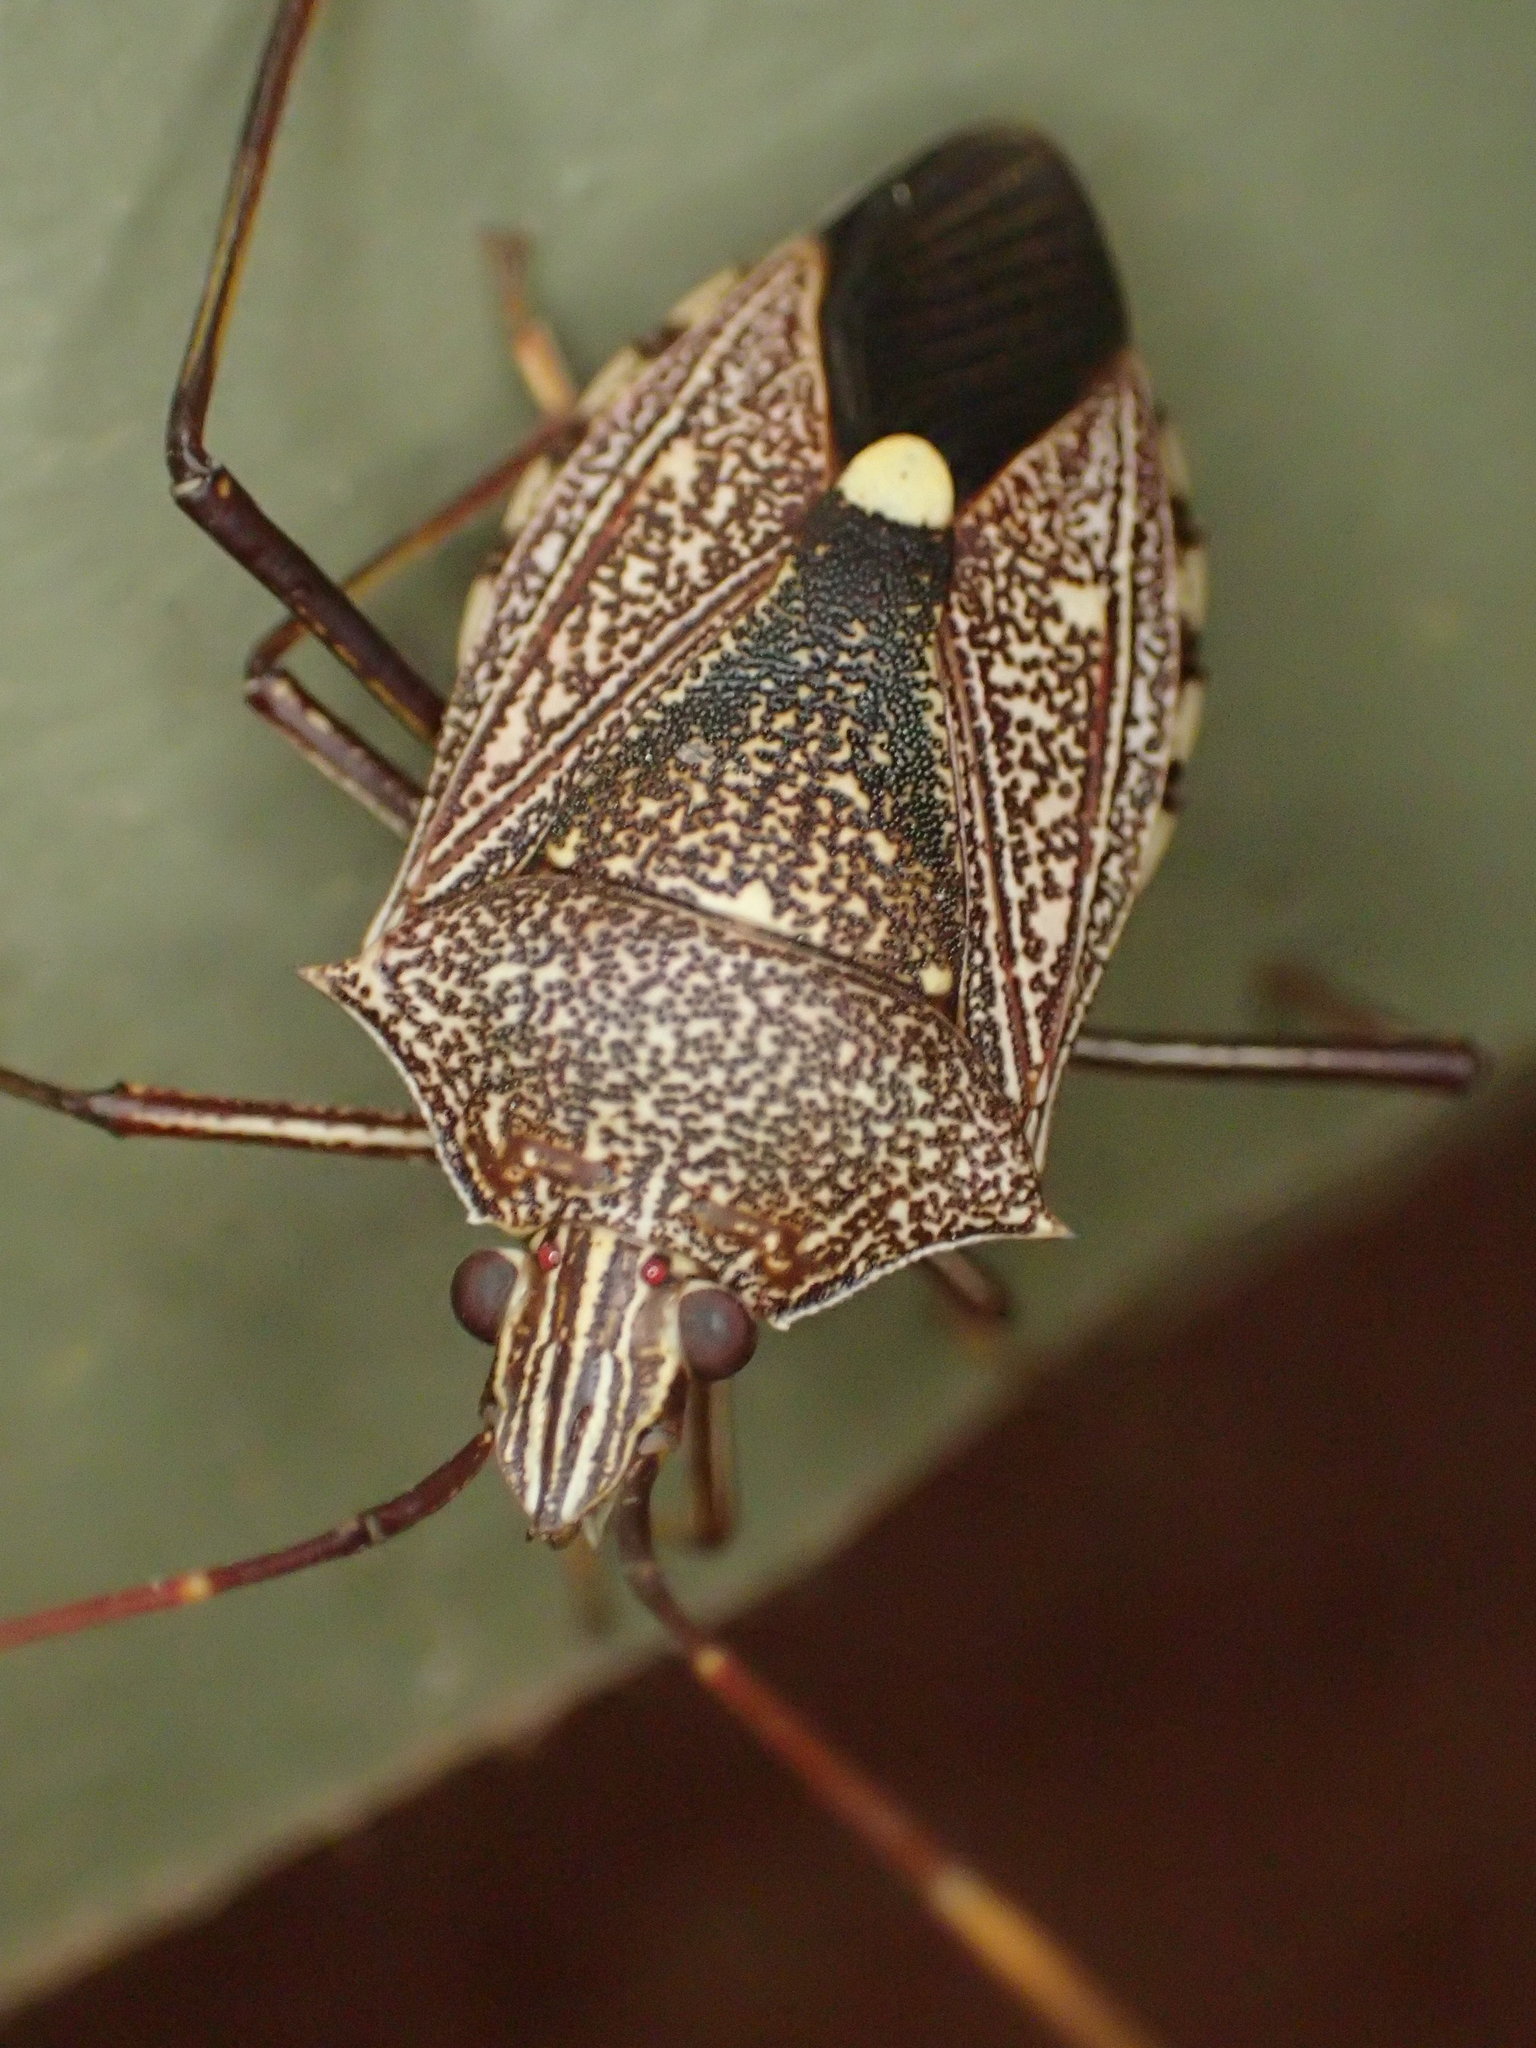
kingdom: Animalia
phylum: Arthropoda
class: Insecta
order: Hemiptera
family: Pentatomidae
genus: Poecilometis
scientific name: Poecilometis
